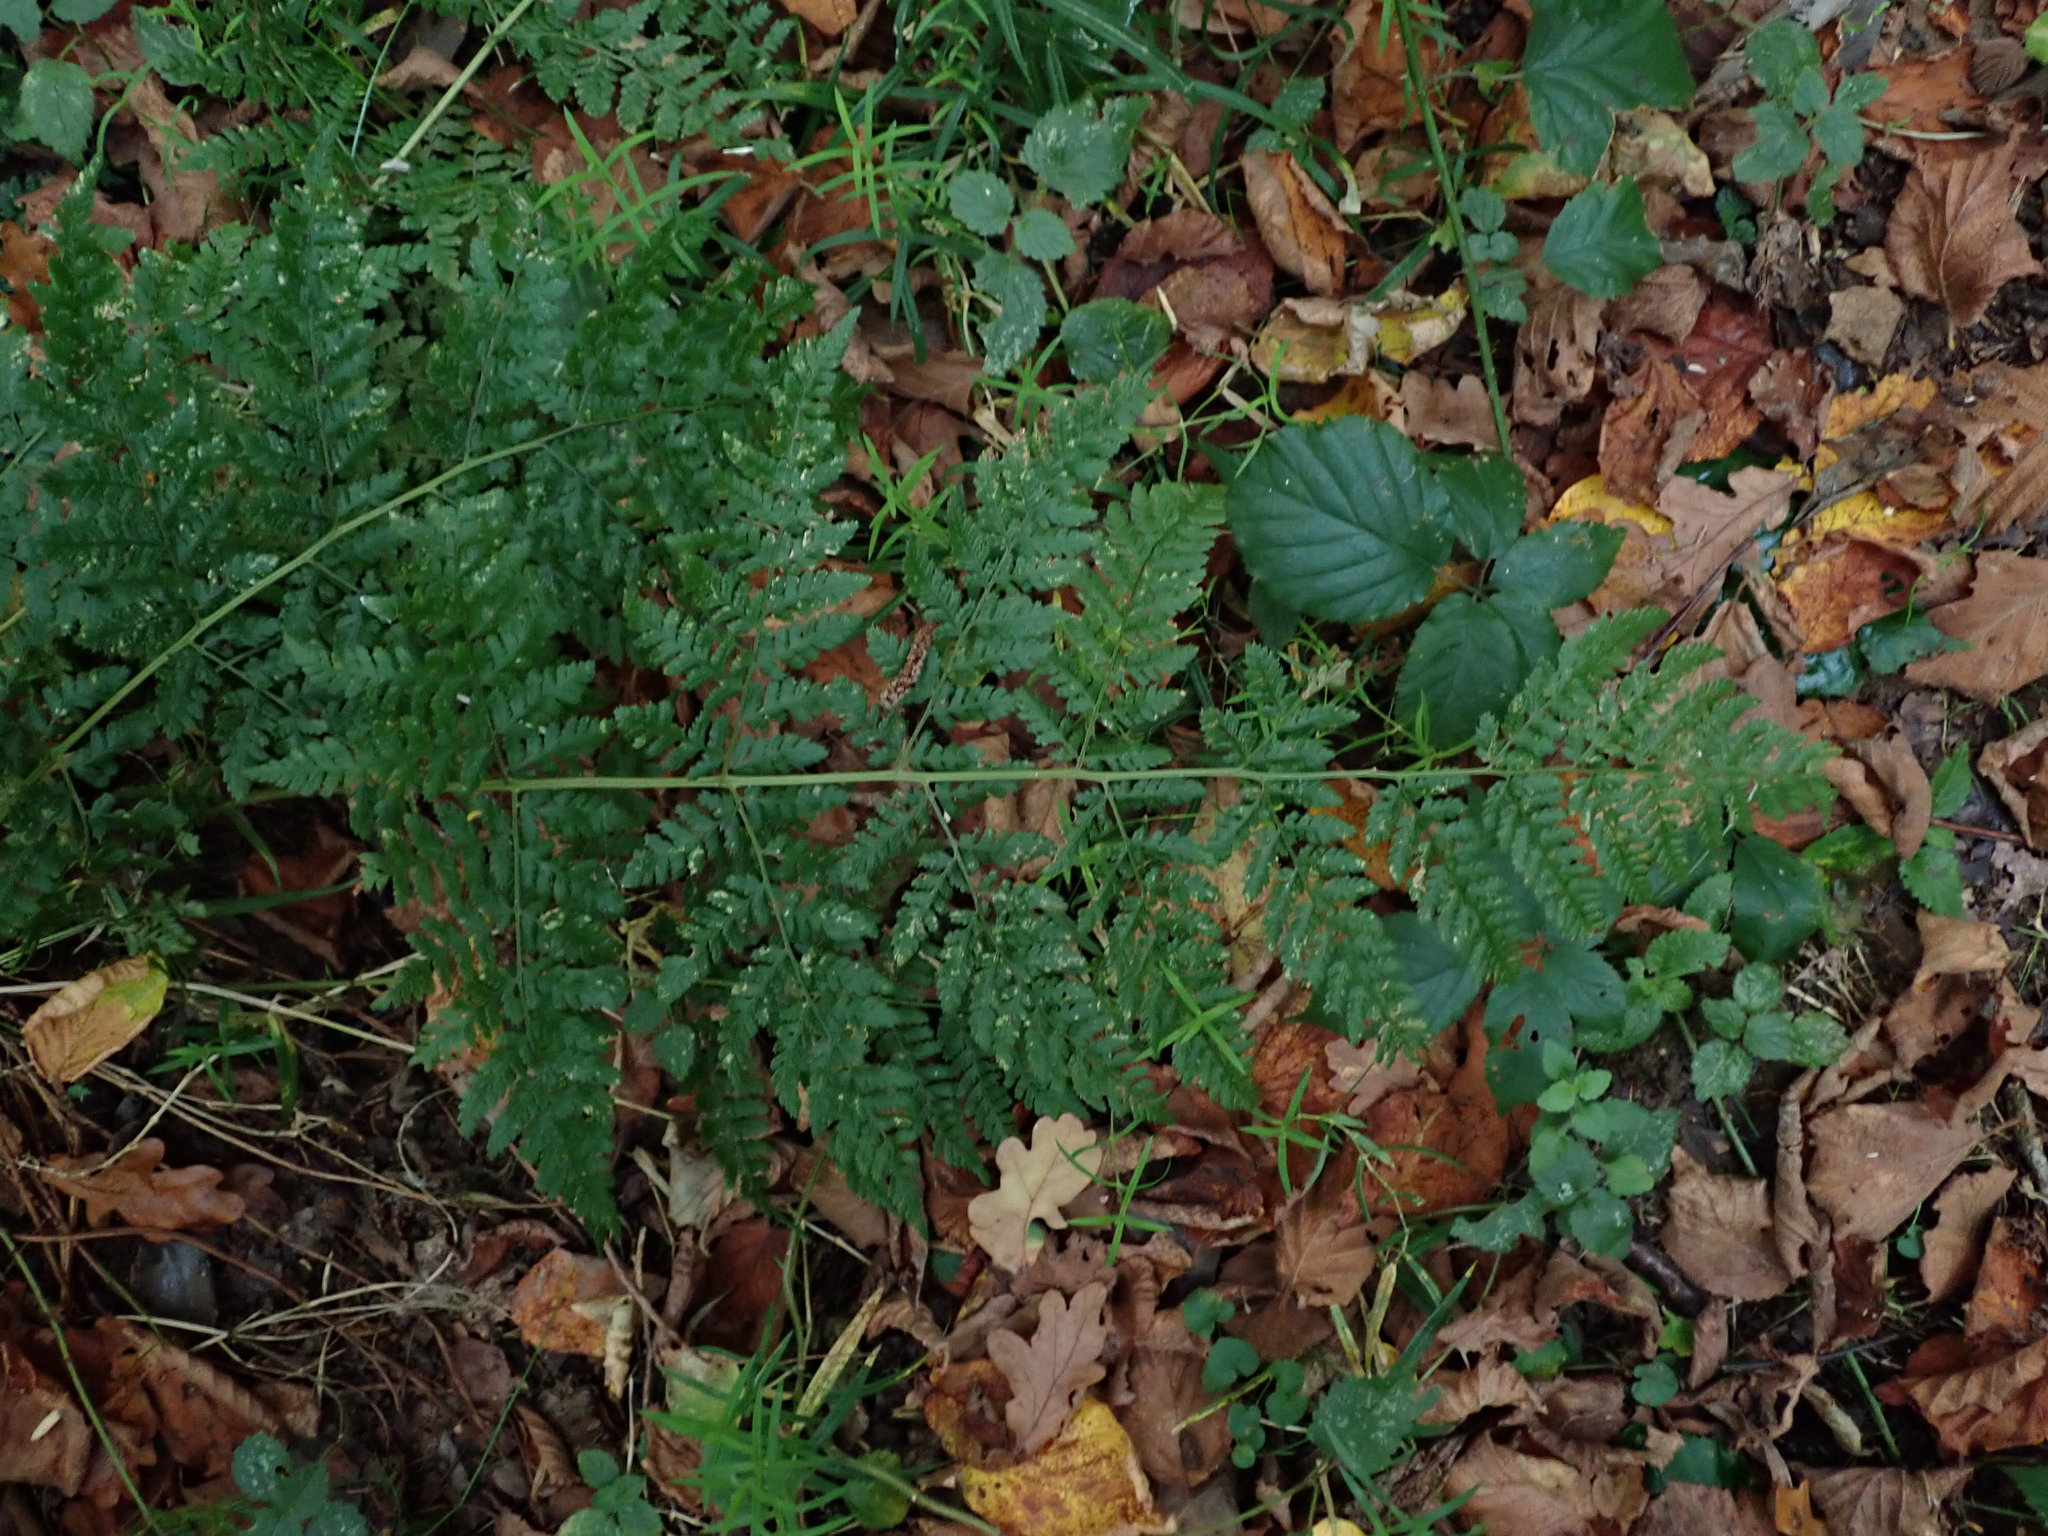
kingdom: Plantae
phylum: Tracheophyta
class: Polypodiopsida
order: Polypodiales
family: Dryopteridaceae
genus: Dryopteris
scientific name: Dryopteris dilatata
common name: Broad buckler-fern
